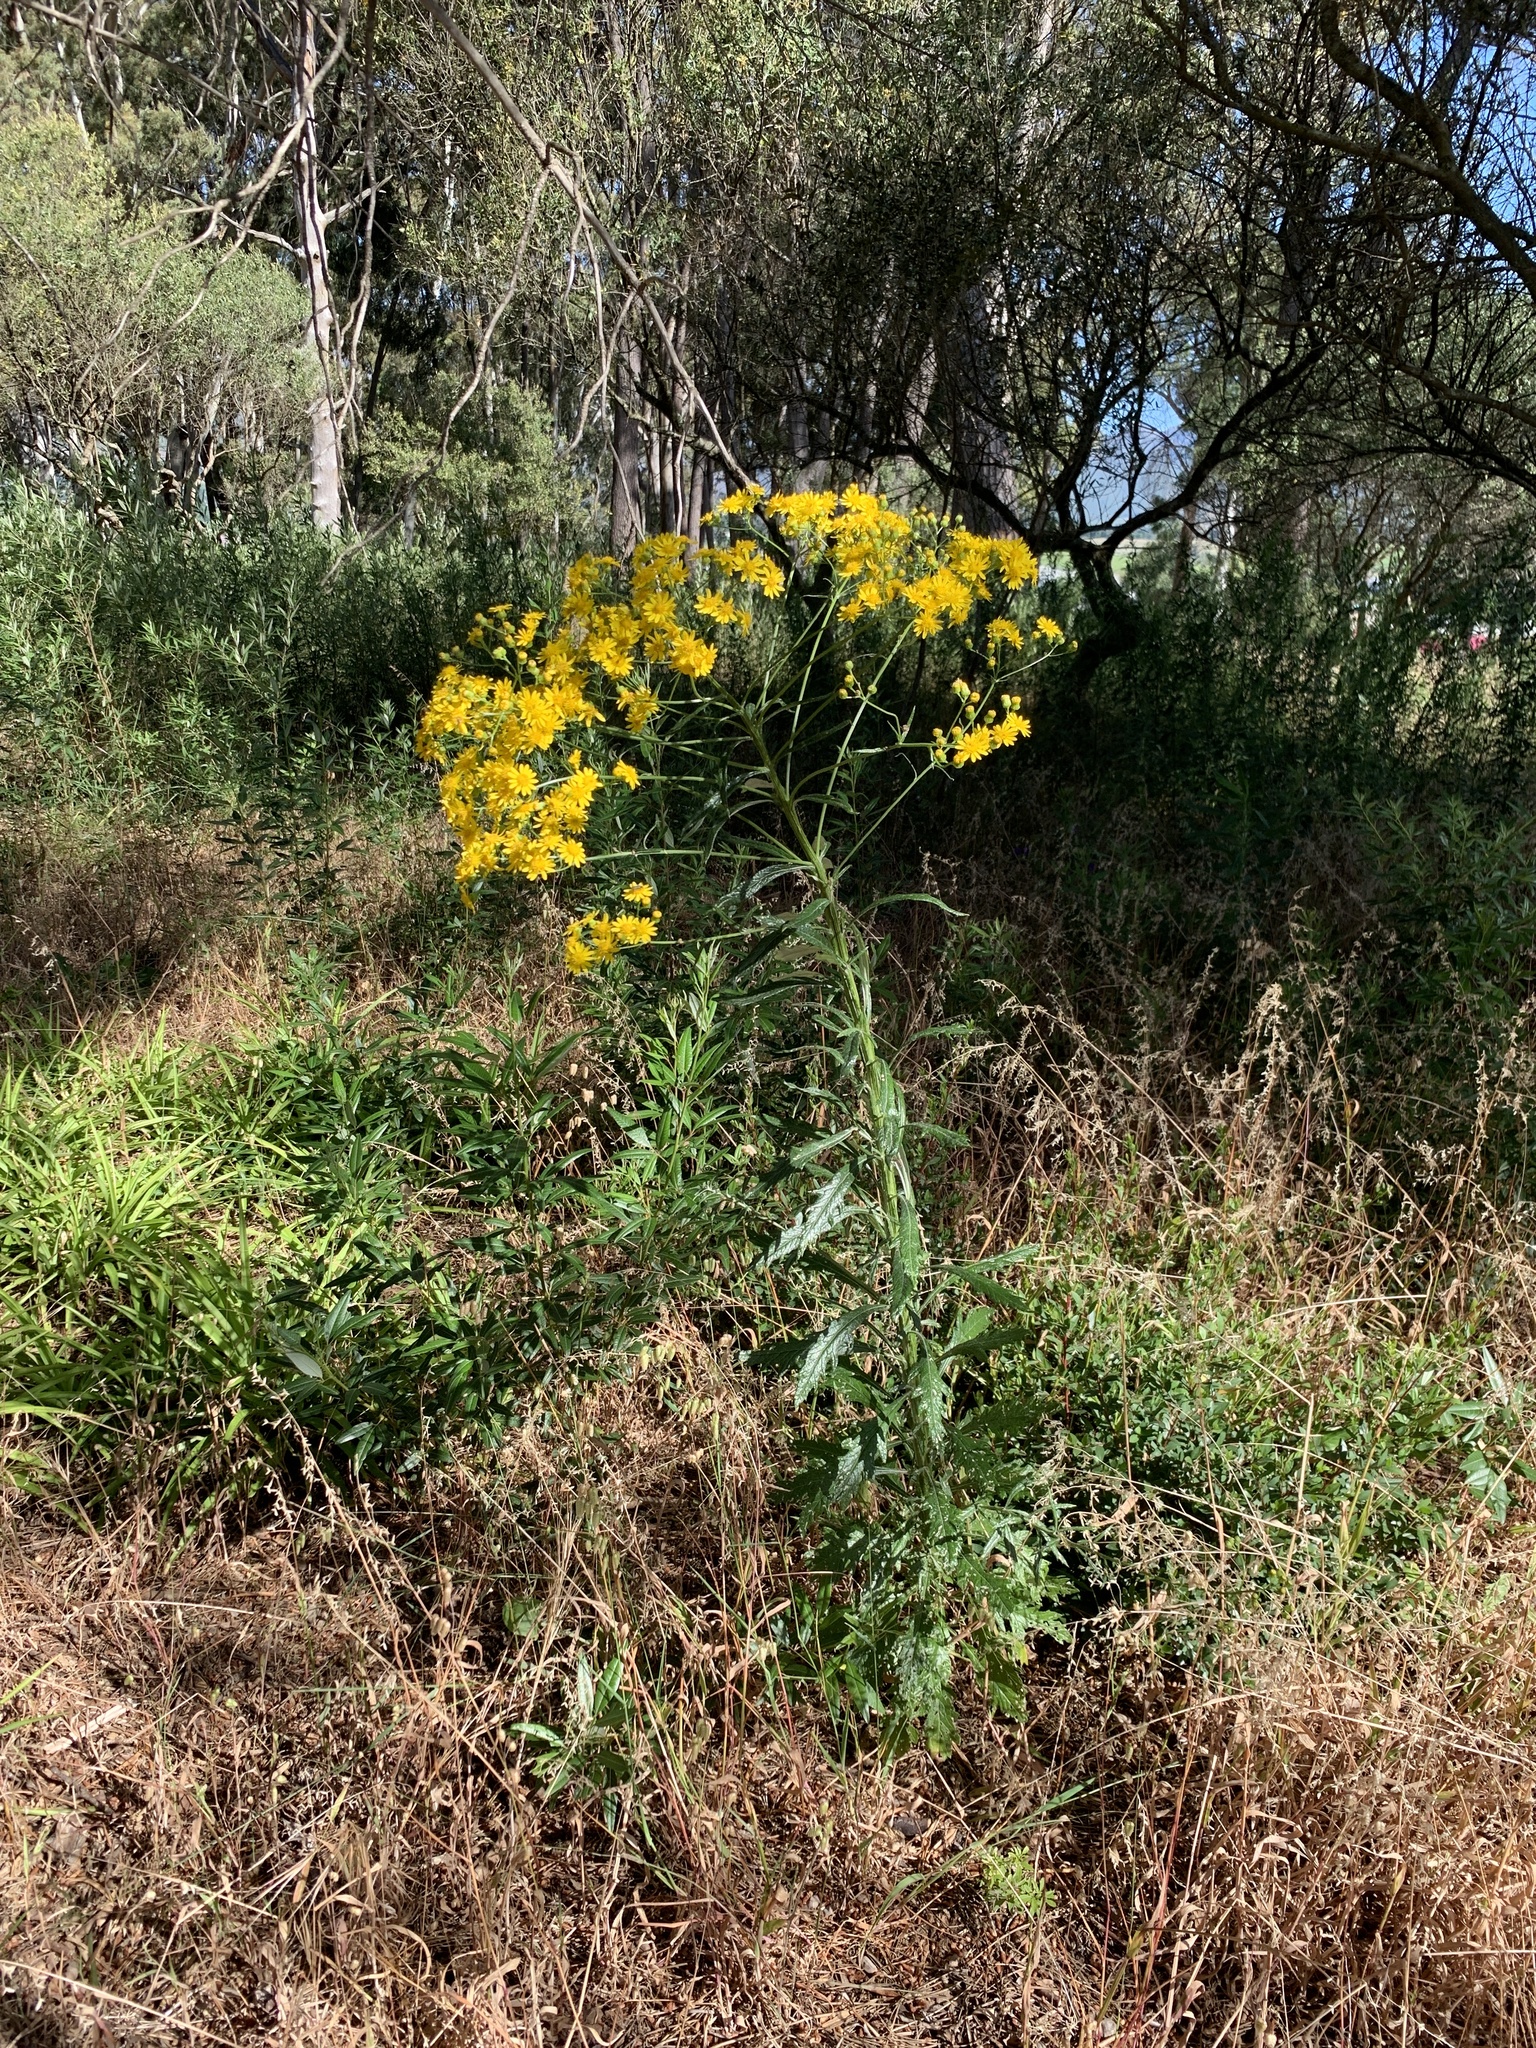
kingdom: Plantae
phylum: Tracheophyta
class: Magnoliopsida
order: Asterales
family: Asteraceae
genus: Senecio
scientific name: Senecio pterophorus
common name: Shoddy ragwort
